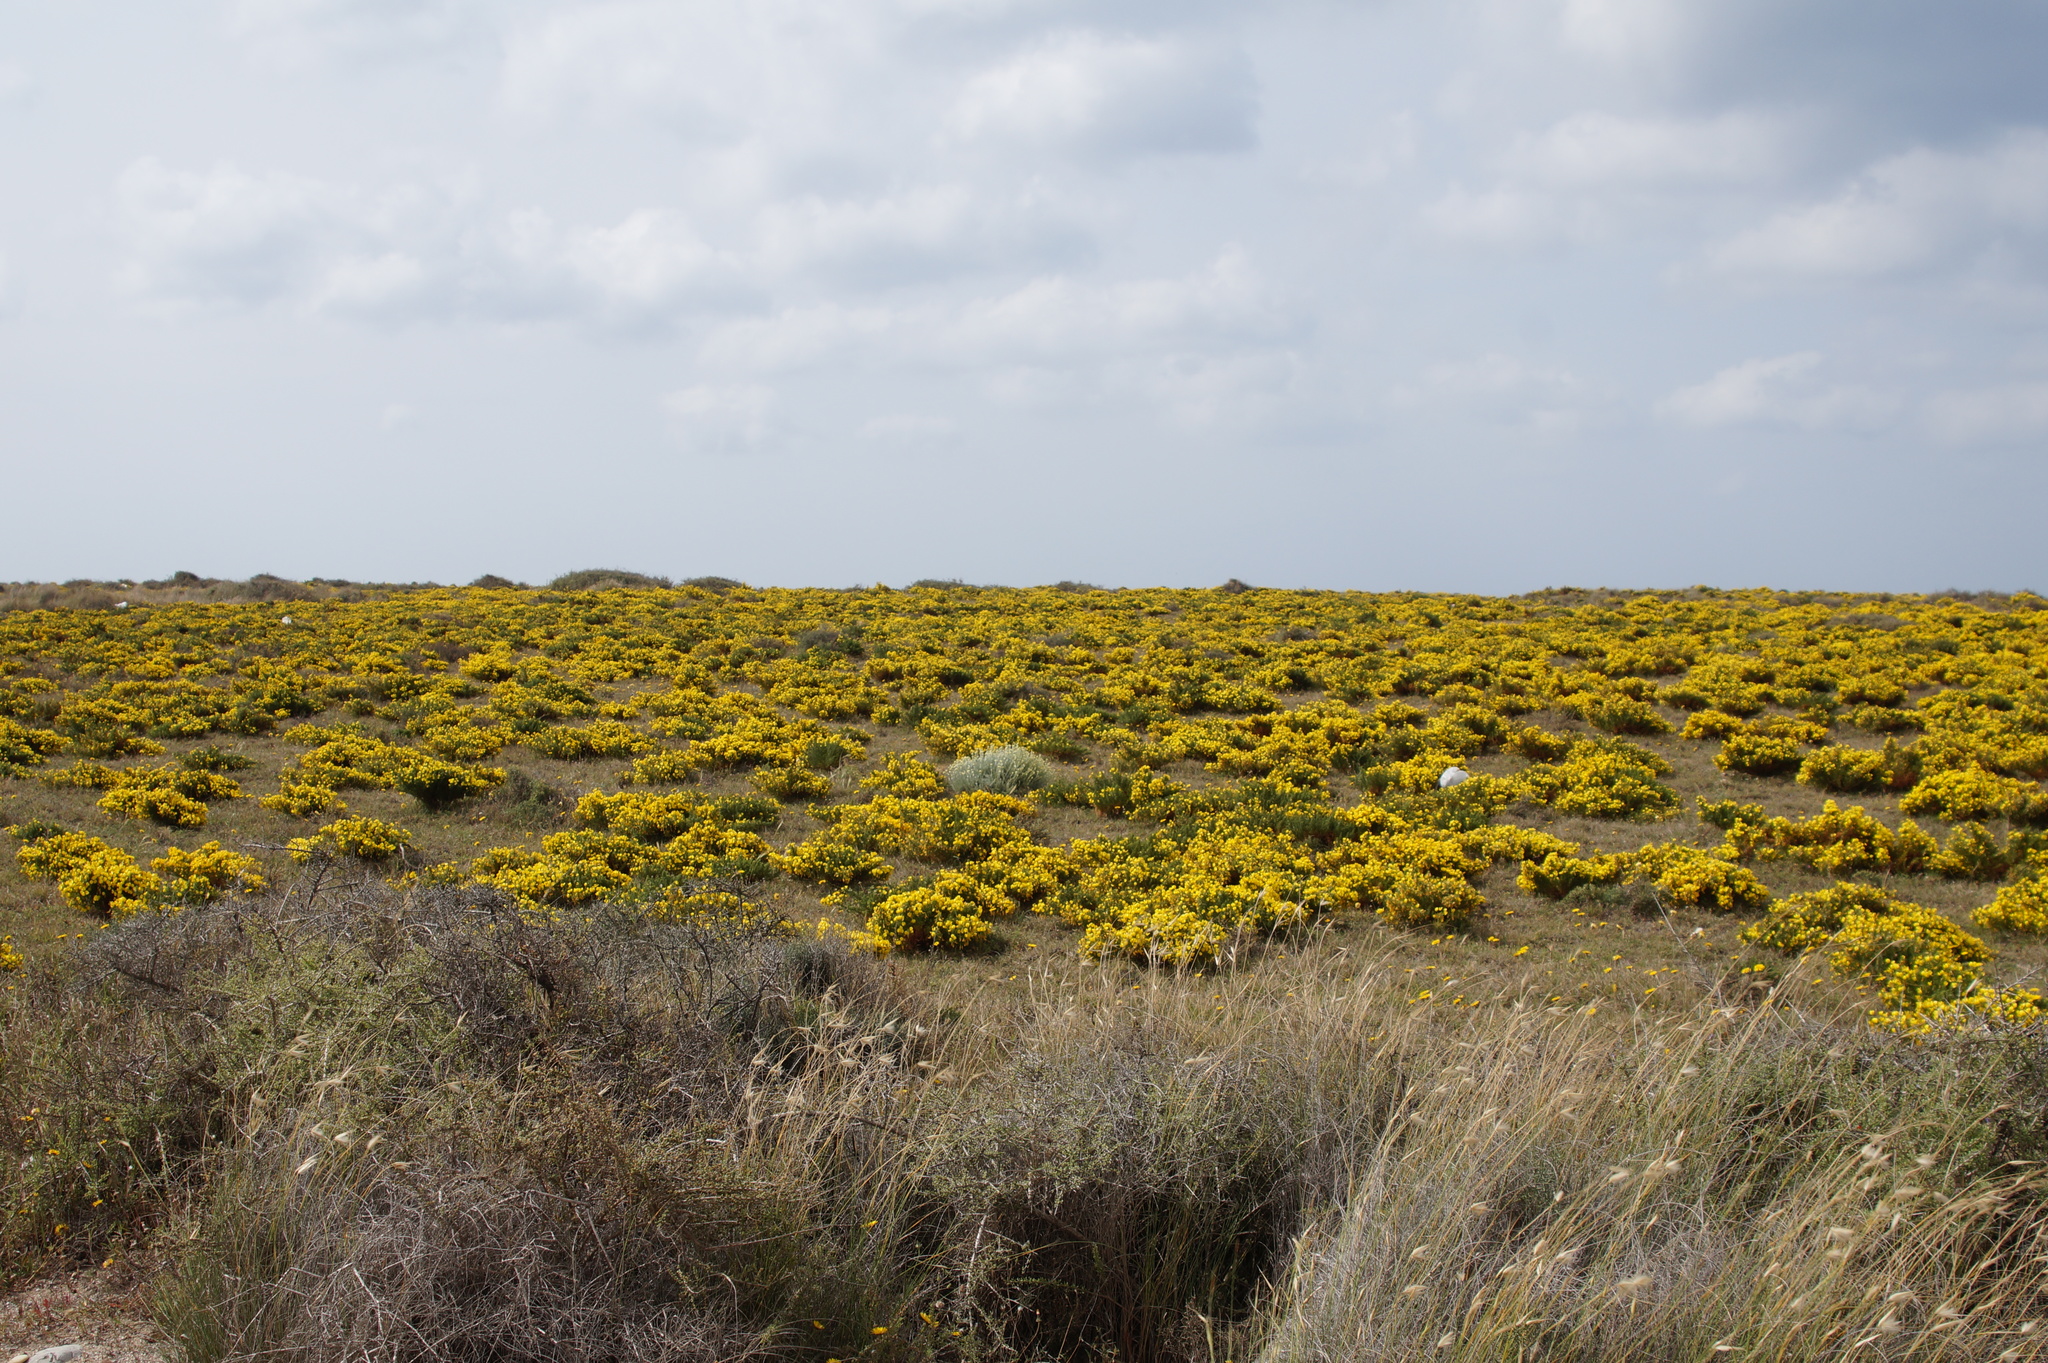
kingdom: Plantae
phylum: Tracheophyta
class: Magnoliopsida
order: Fabales
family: Fabaceae
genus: Lotus
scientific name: Lotus creticus
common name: Cretan bird's-foot trefoil
